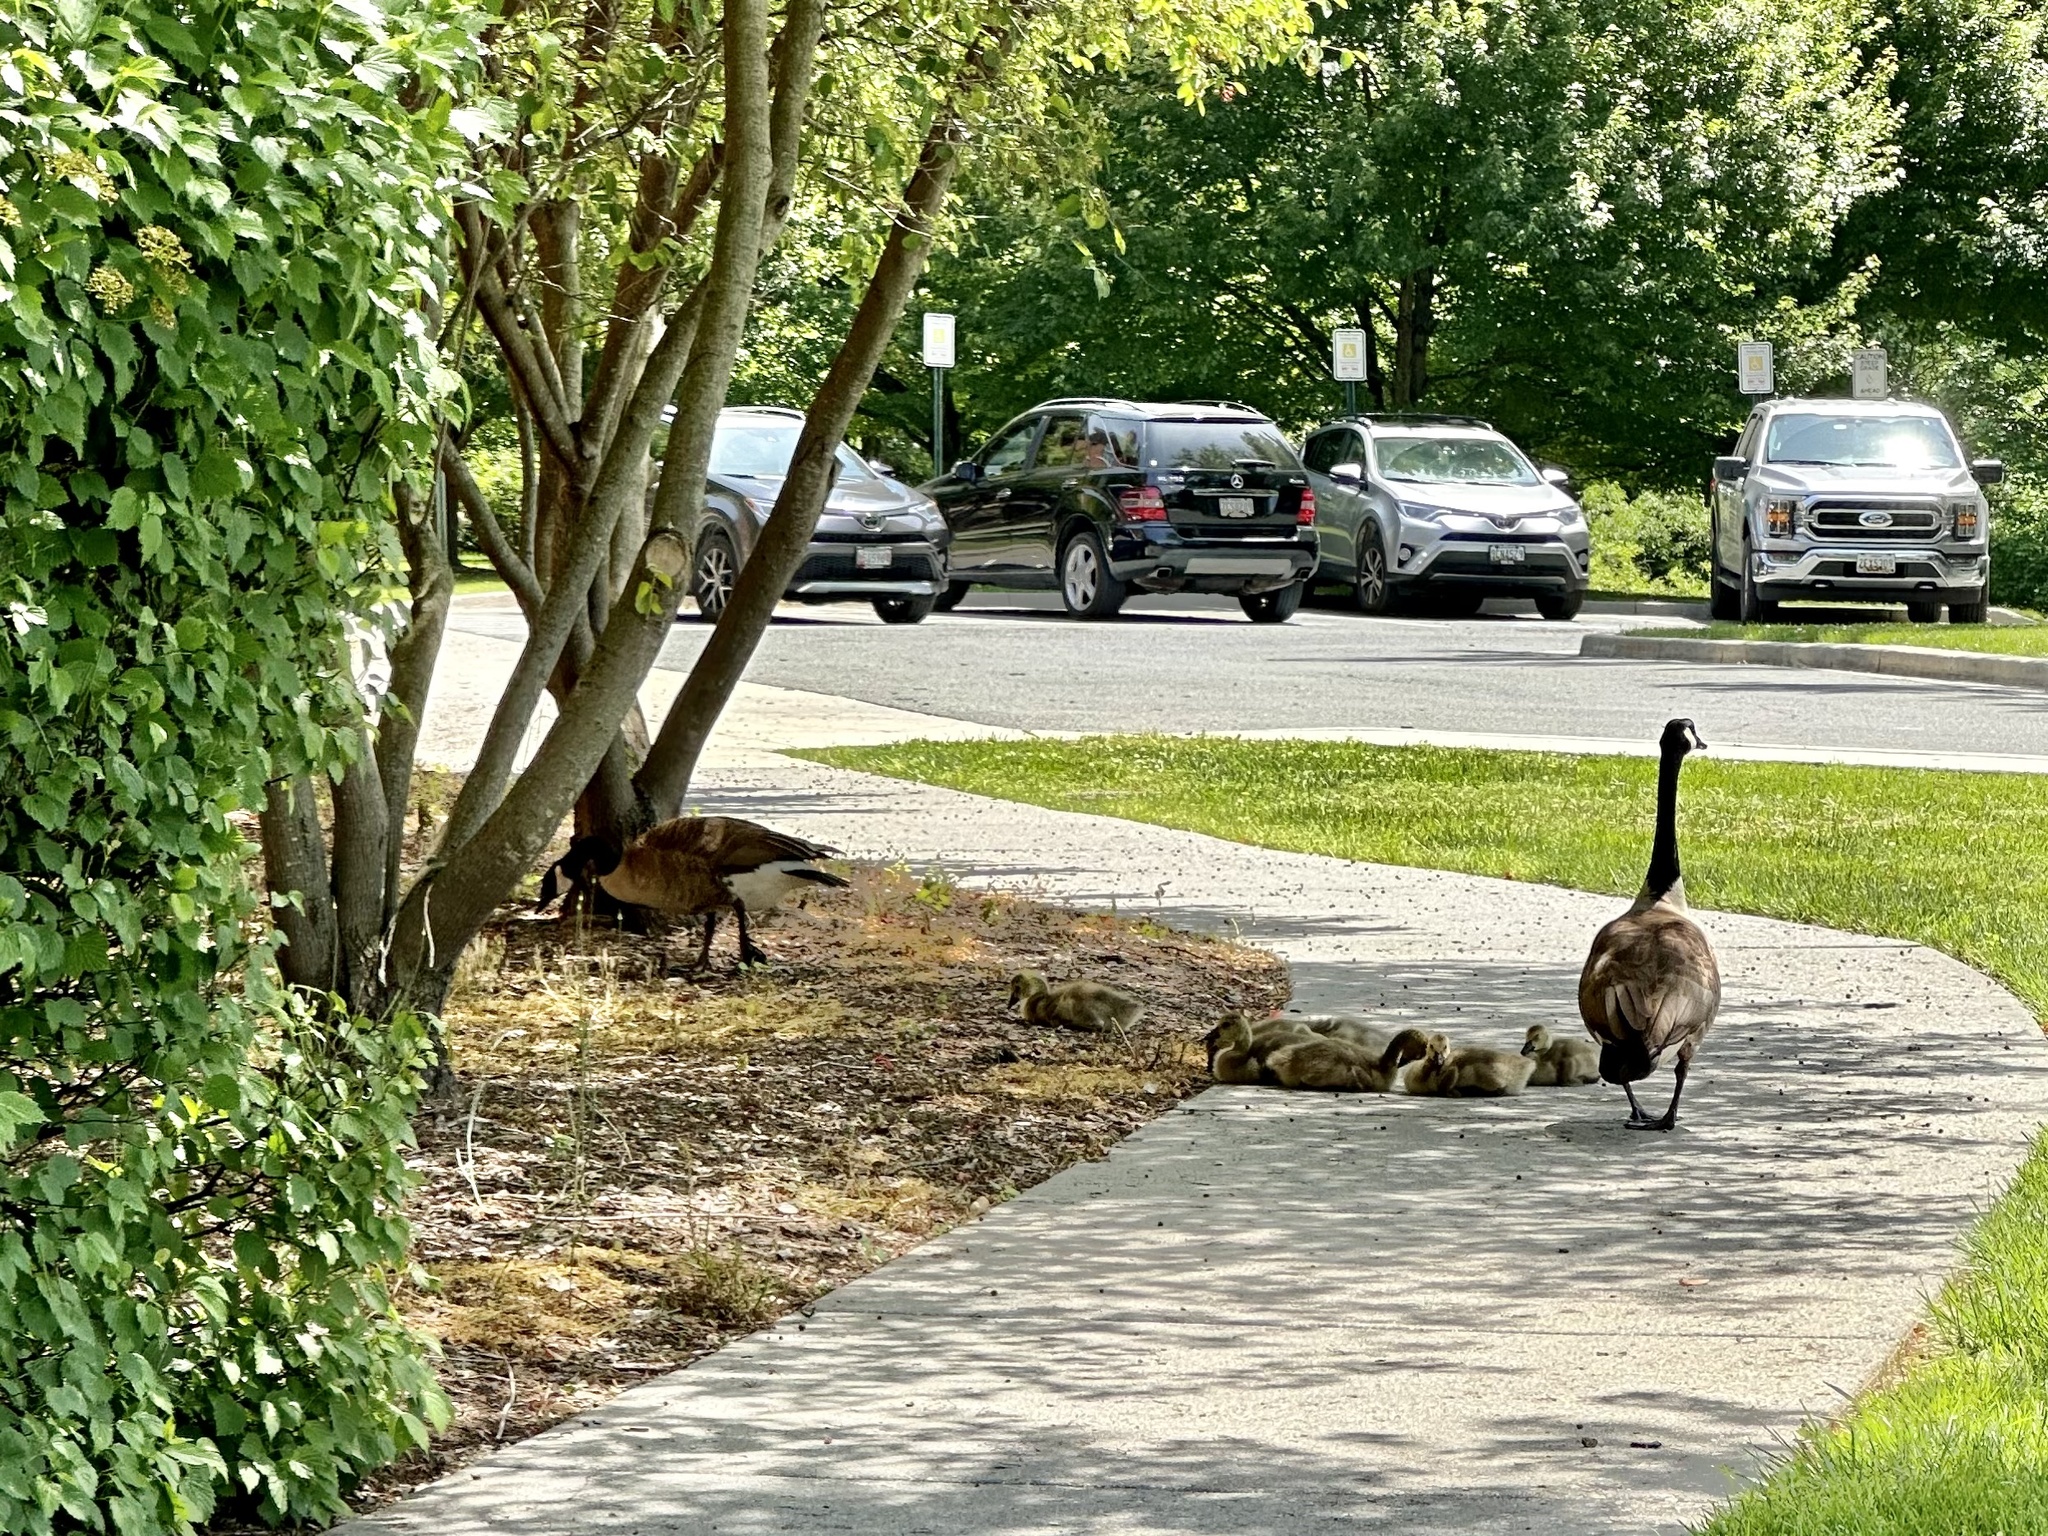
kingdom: Animalia
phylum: Chordata
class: Aves
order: Anseriformes
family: Anatidae
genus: Branta
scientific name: Branta canadensis
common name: Canada goose
